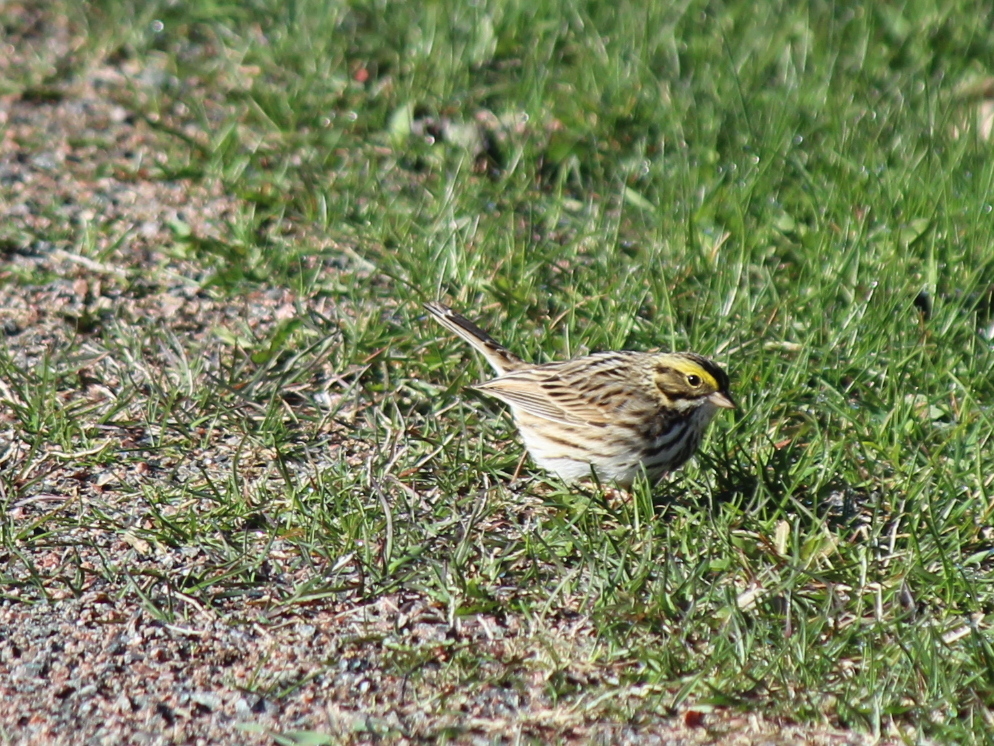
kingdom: Animalia
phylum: Chordata
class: Aves
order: Passeriformes
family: Passerellidae
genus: Passerculus
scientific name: Passerculus sandwichensis
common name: Savannah sparrow
